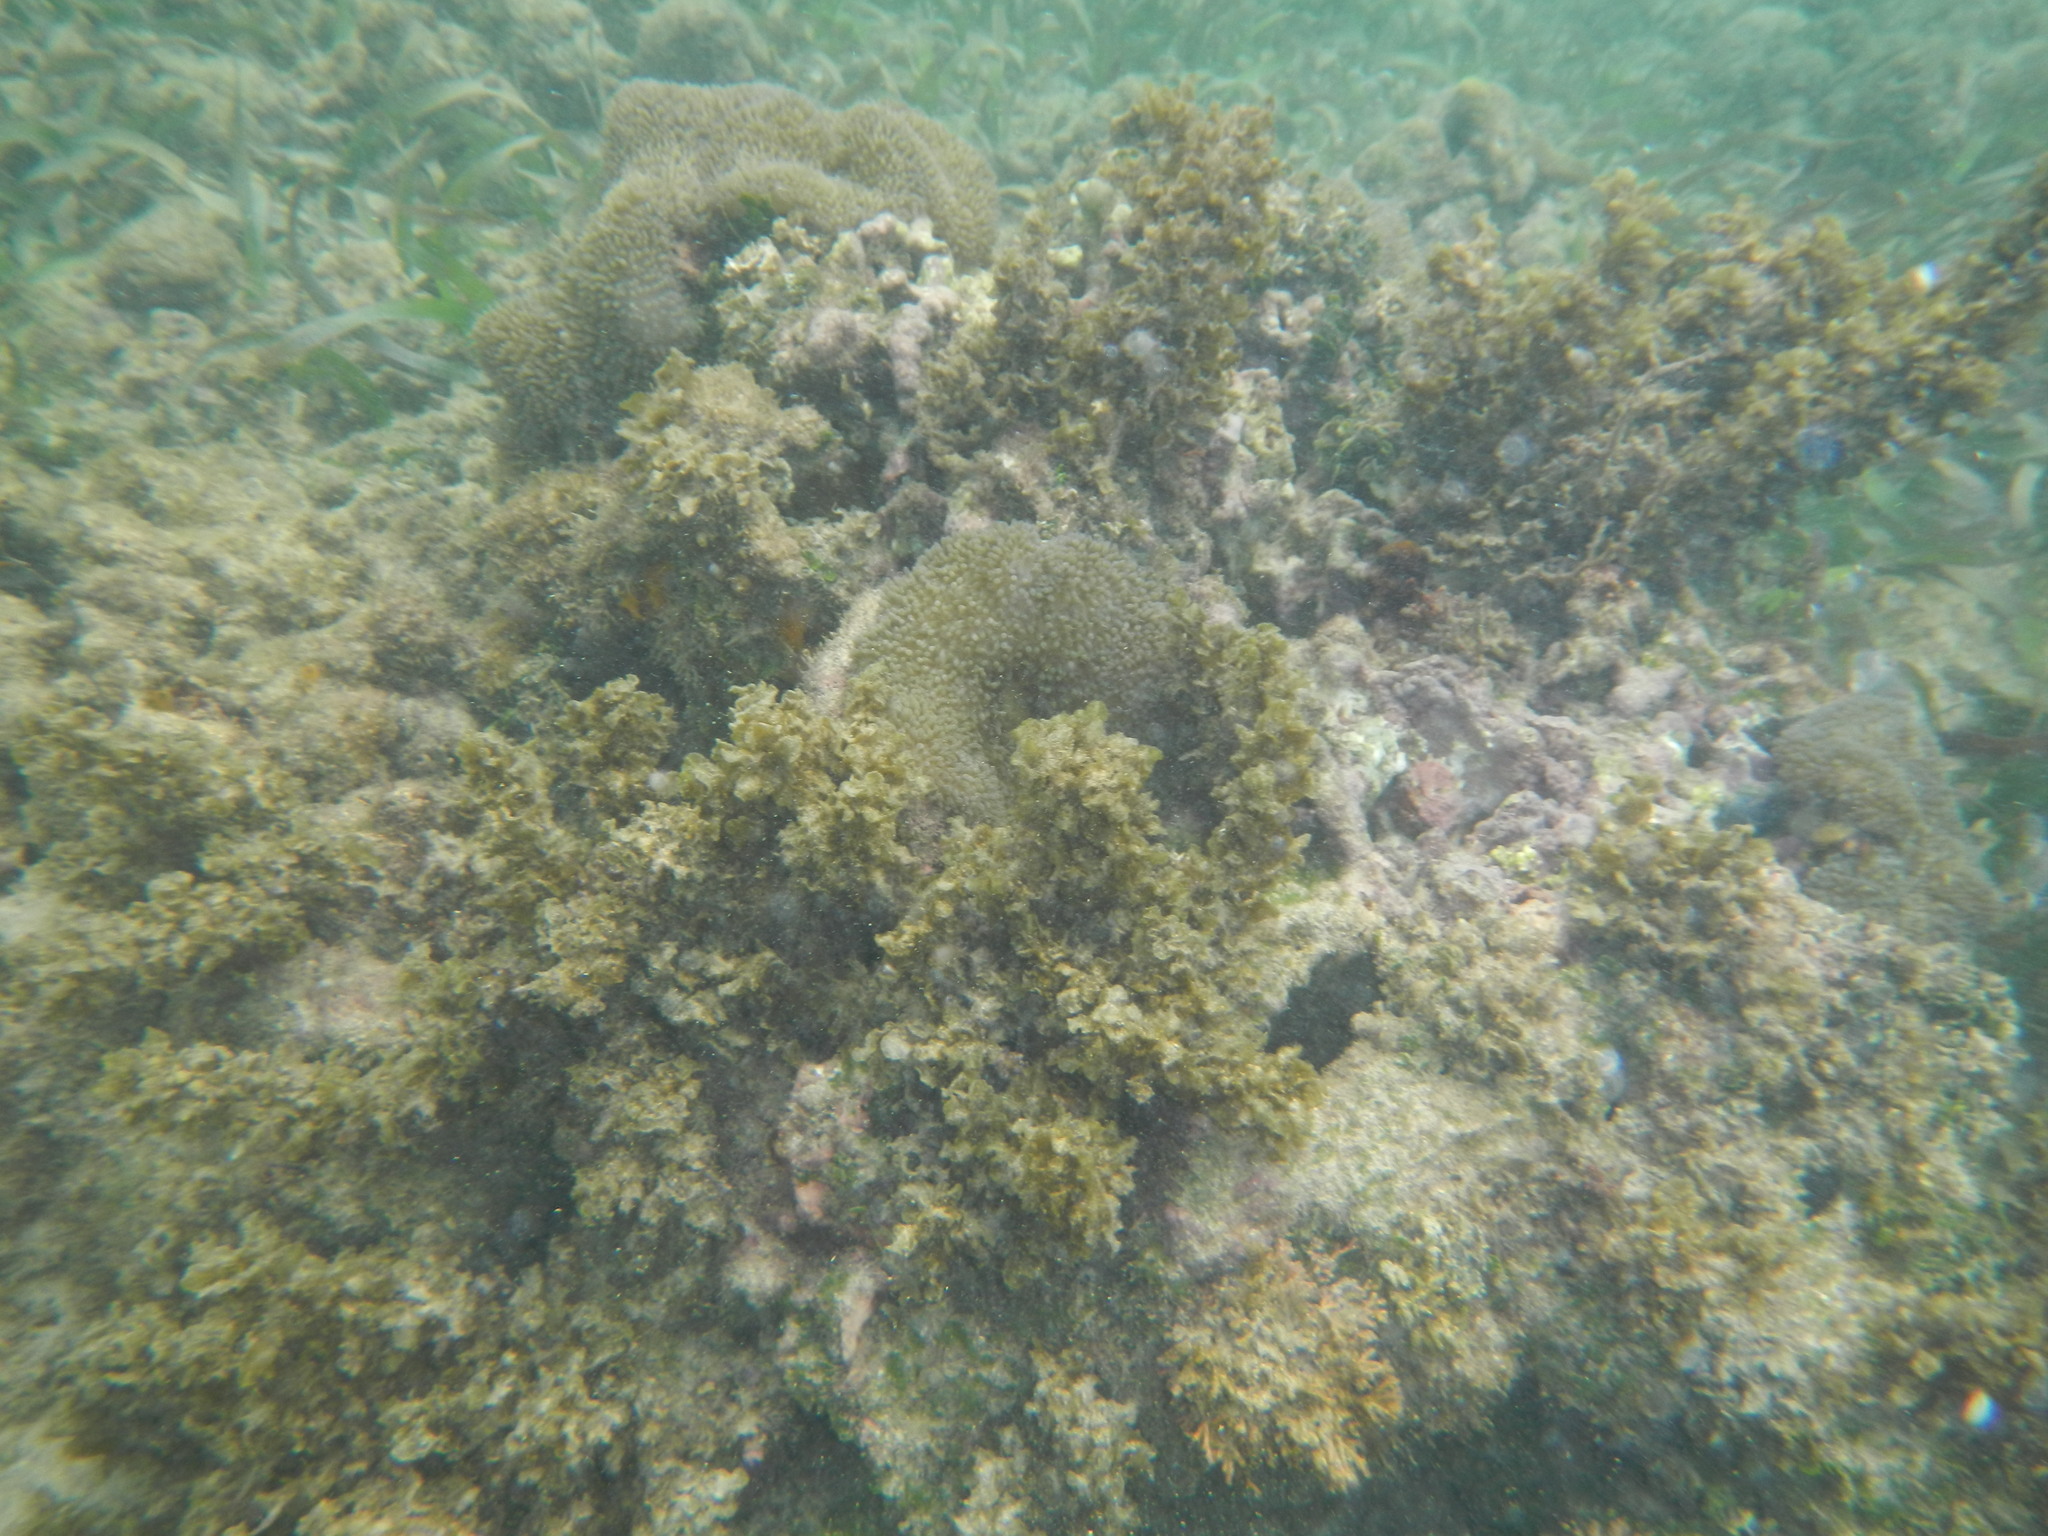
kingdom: Animalia
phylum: Cnidaria
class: Anthozoa
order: Actiniaria
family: Stichodactylidae
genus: Stichodactyla
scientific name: Stichodactyla helianthus
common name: Sun anemone
